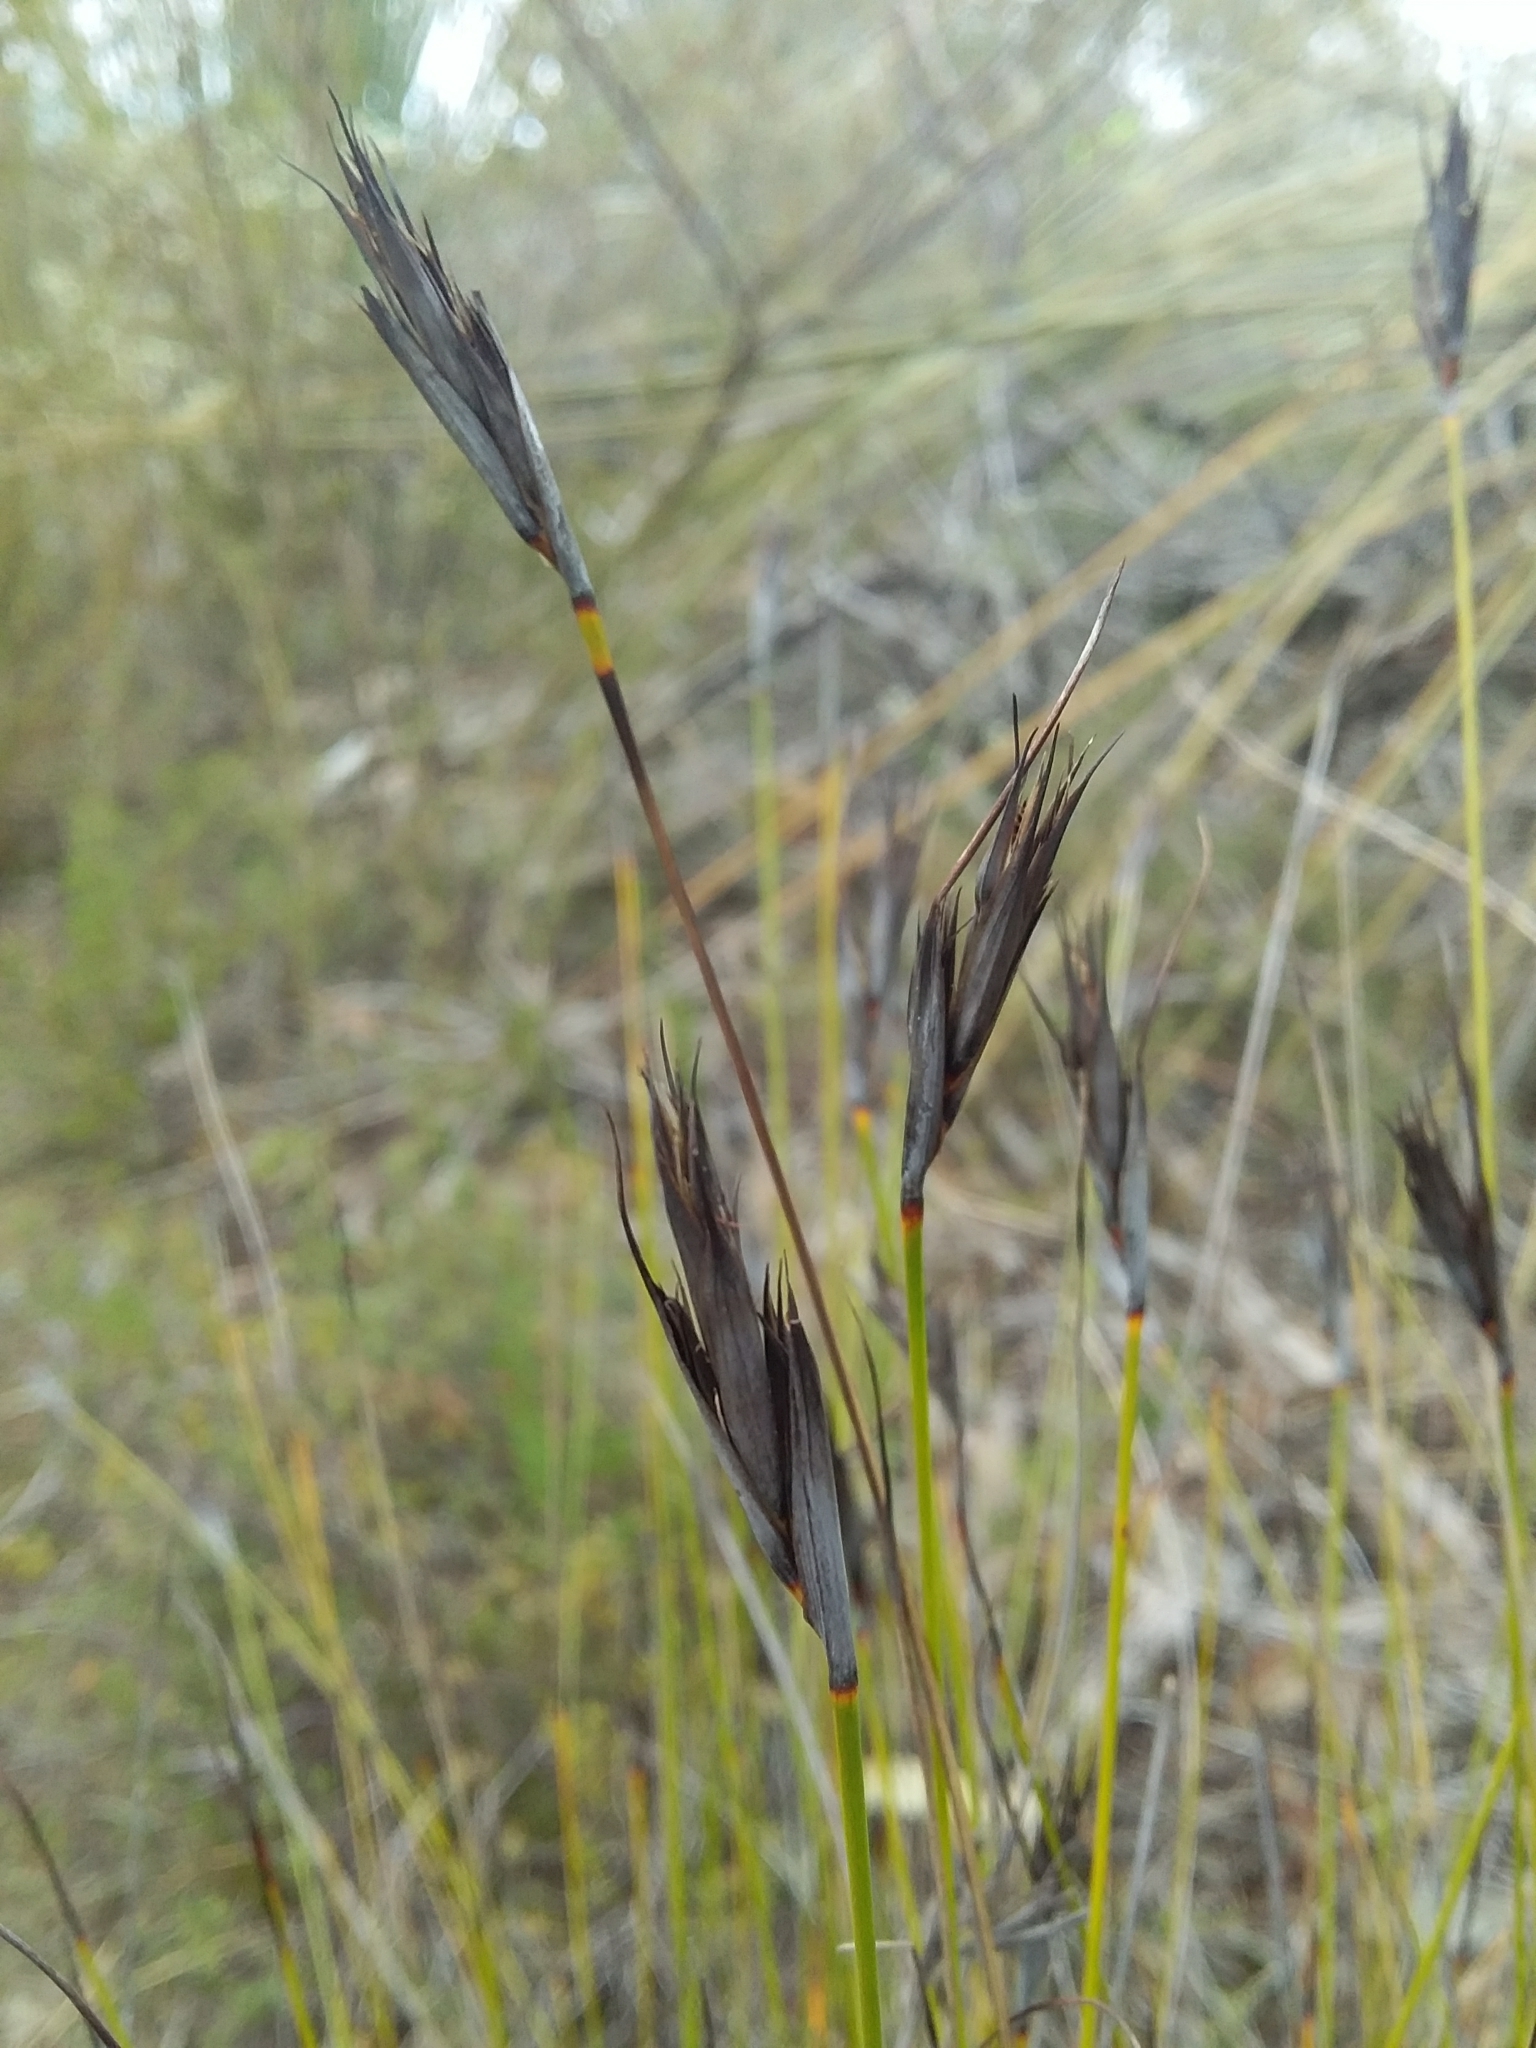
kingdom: Plantae
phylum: Tracheophyta
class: Liliopsida
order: Poales
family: Cyperaceae
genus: Lepidosperma
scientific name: Lepidosperma carphoides
